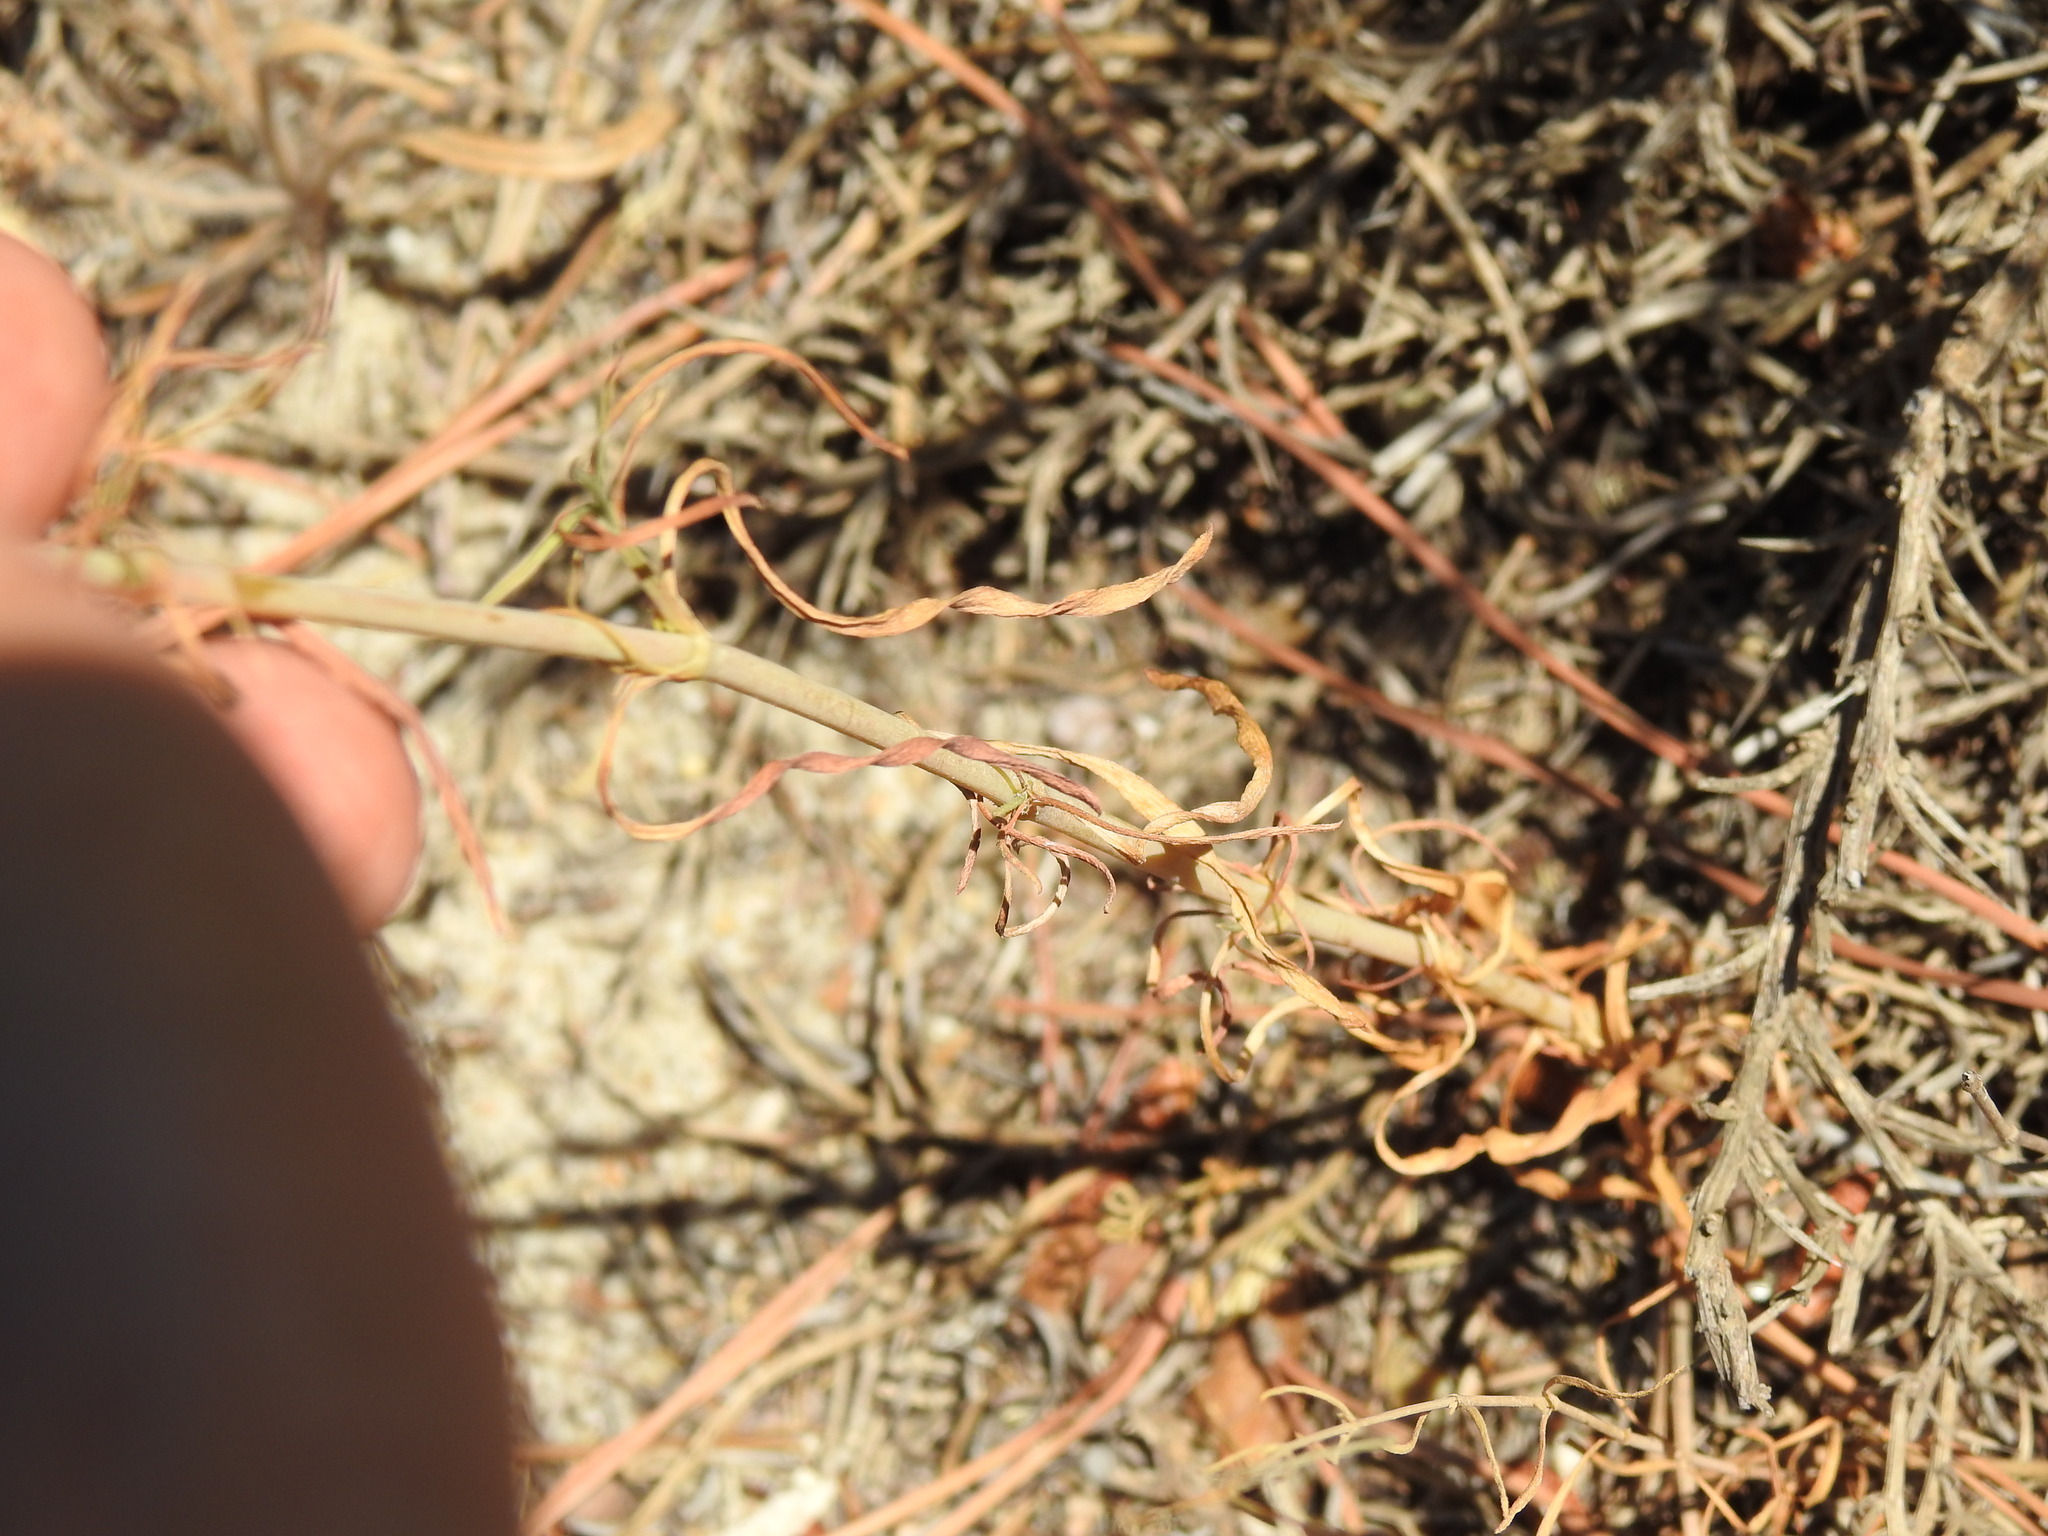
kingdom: Plantae
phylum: Tracheophyta
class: Magnoliopsida
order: Caryophyllales
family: Caryophyllaceae
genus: Silene
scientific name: Silene portensis
